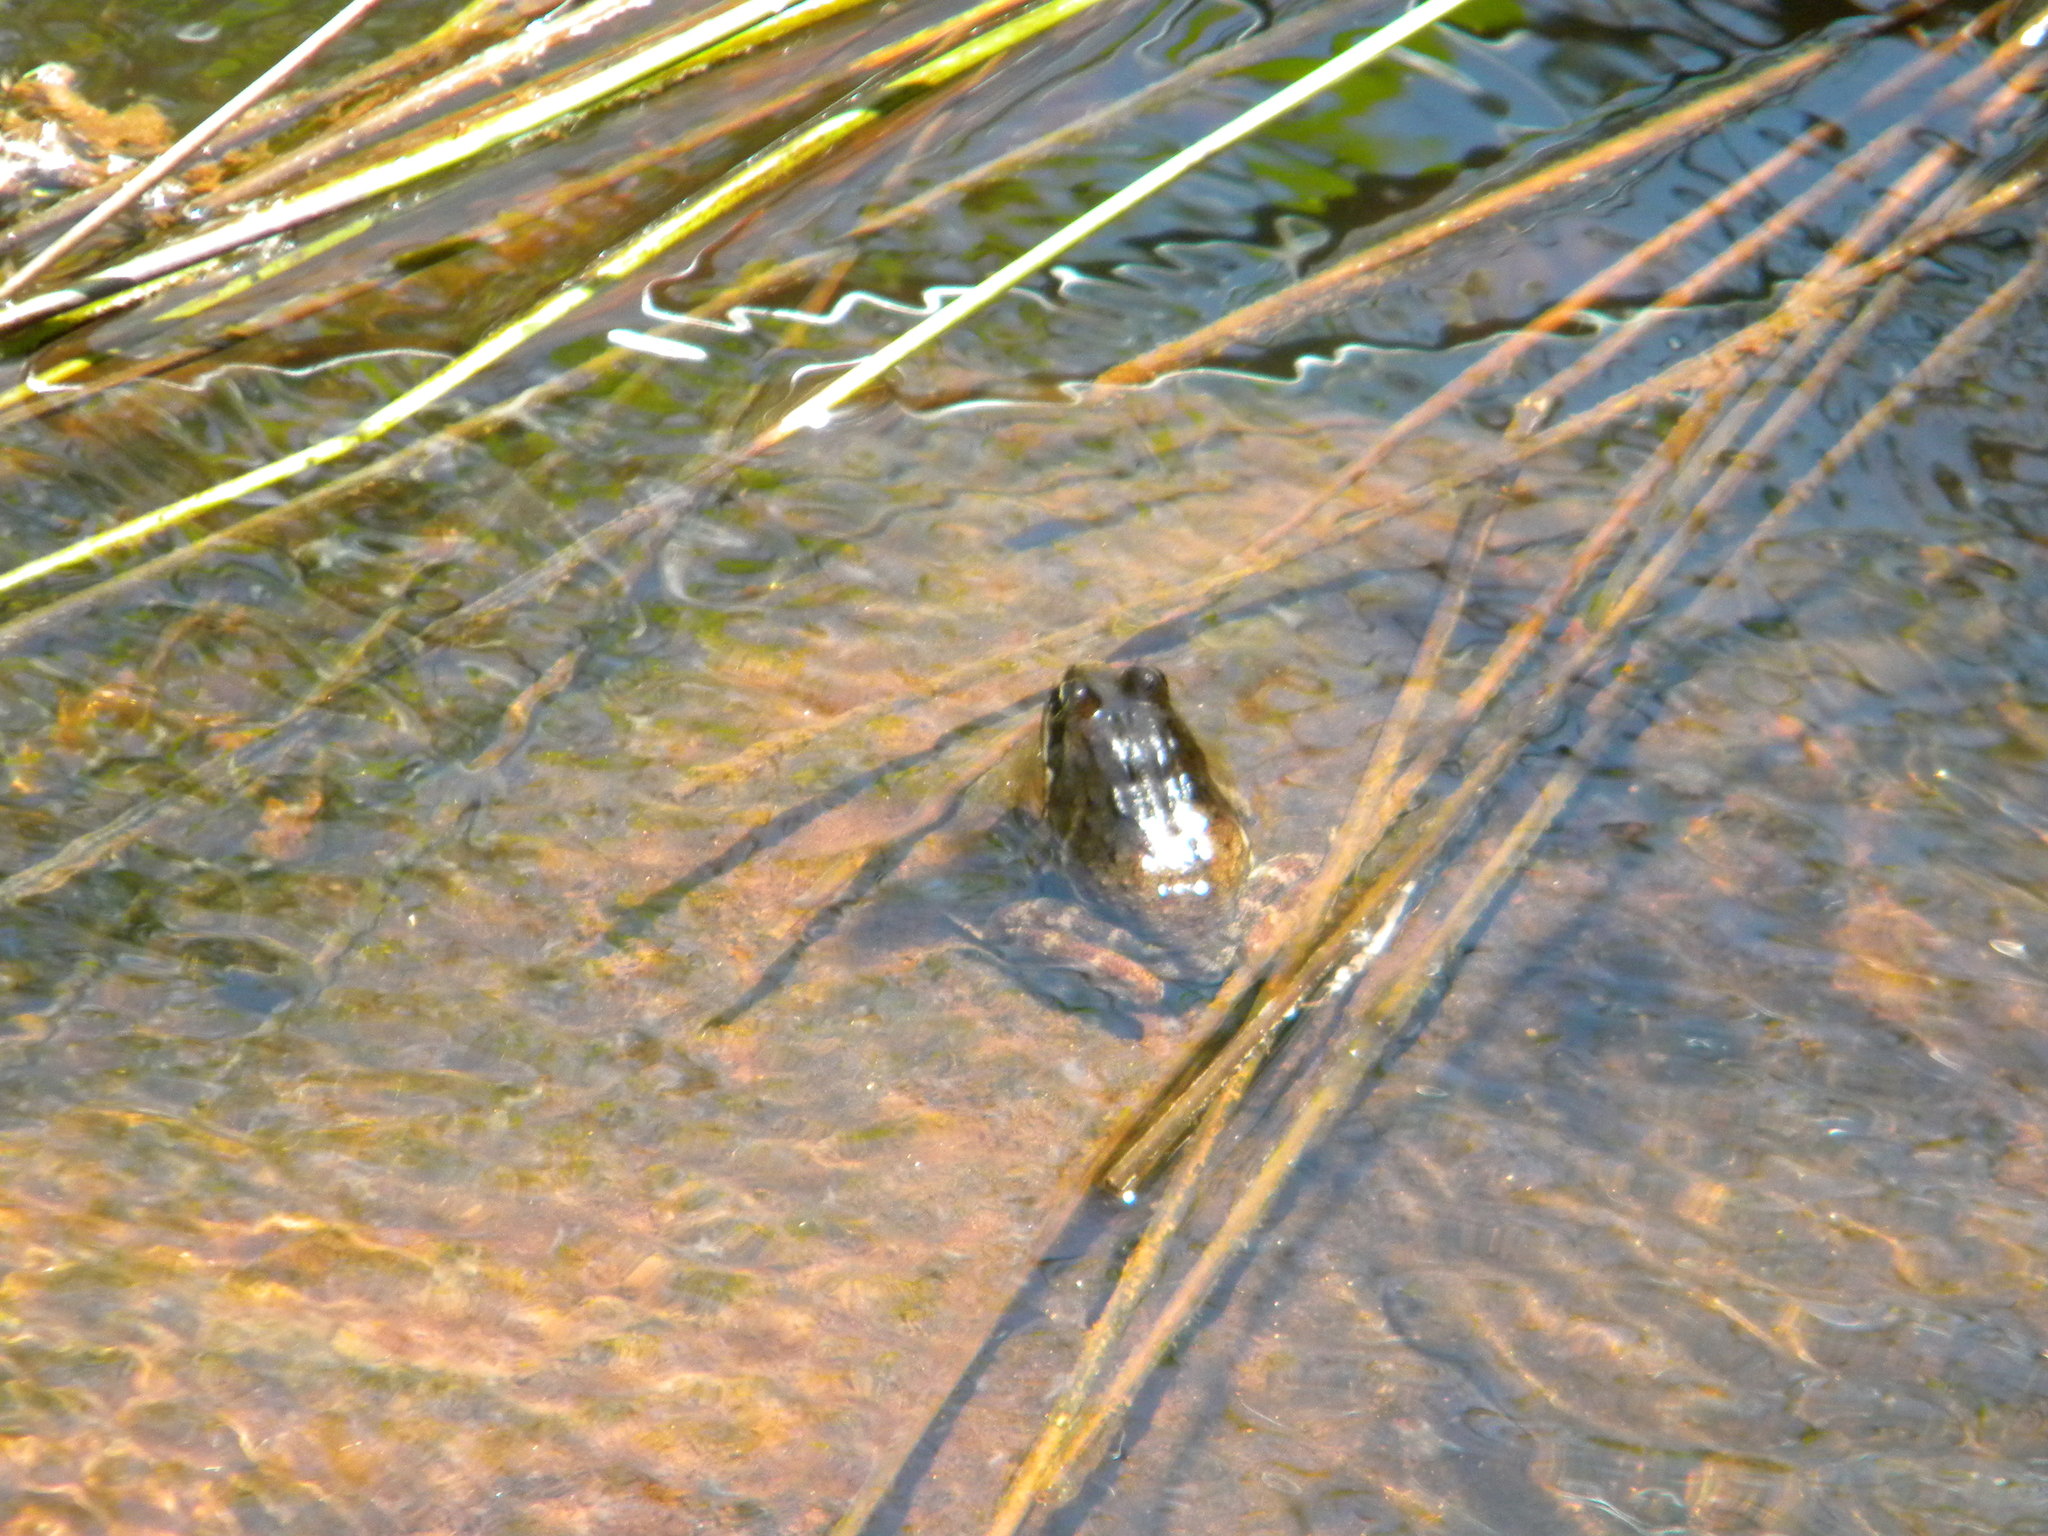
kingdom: Animalia
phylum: Chordata
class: Amphibia
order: Anura
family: Pyxicephalidae
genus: Amietia
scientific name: Amietia fuscigula
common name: Cape rana
